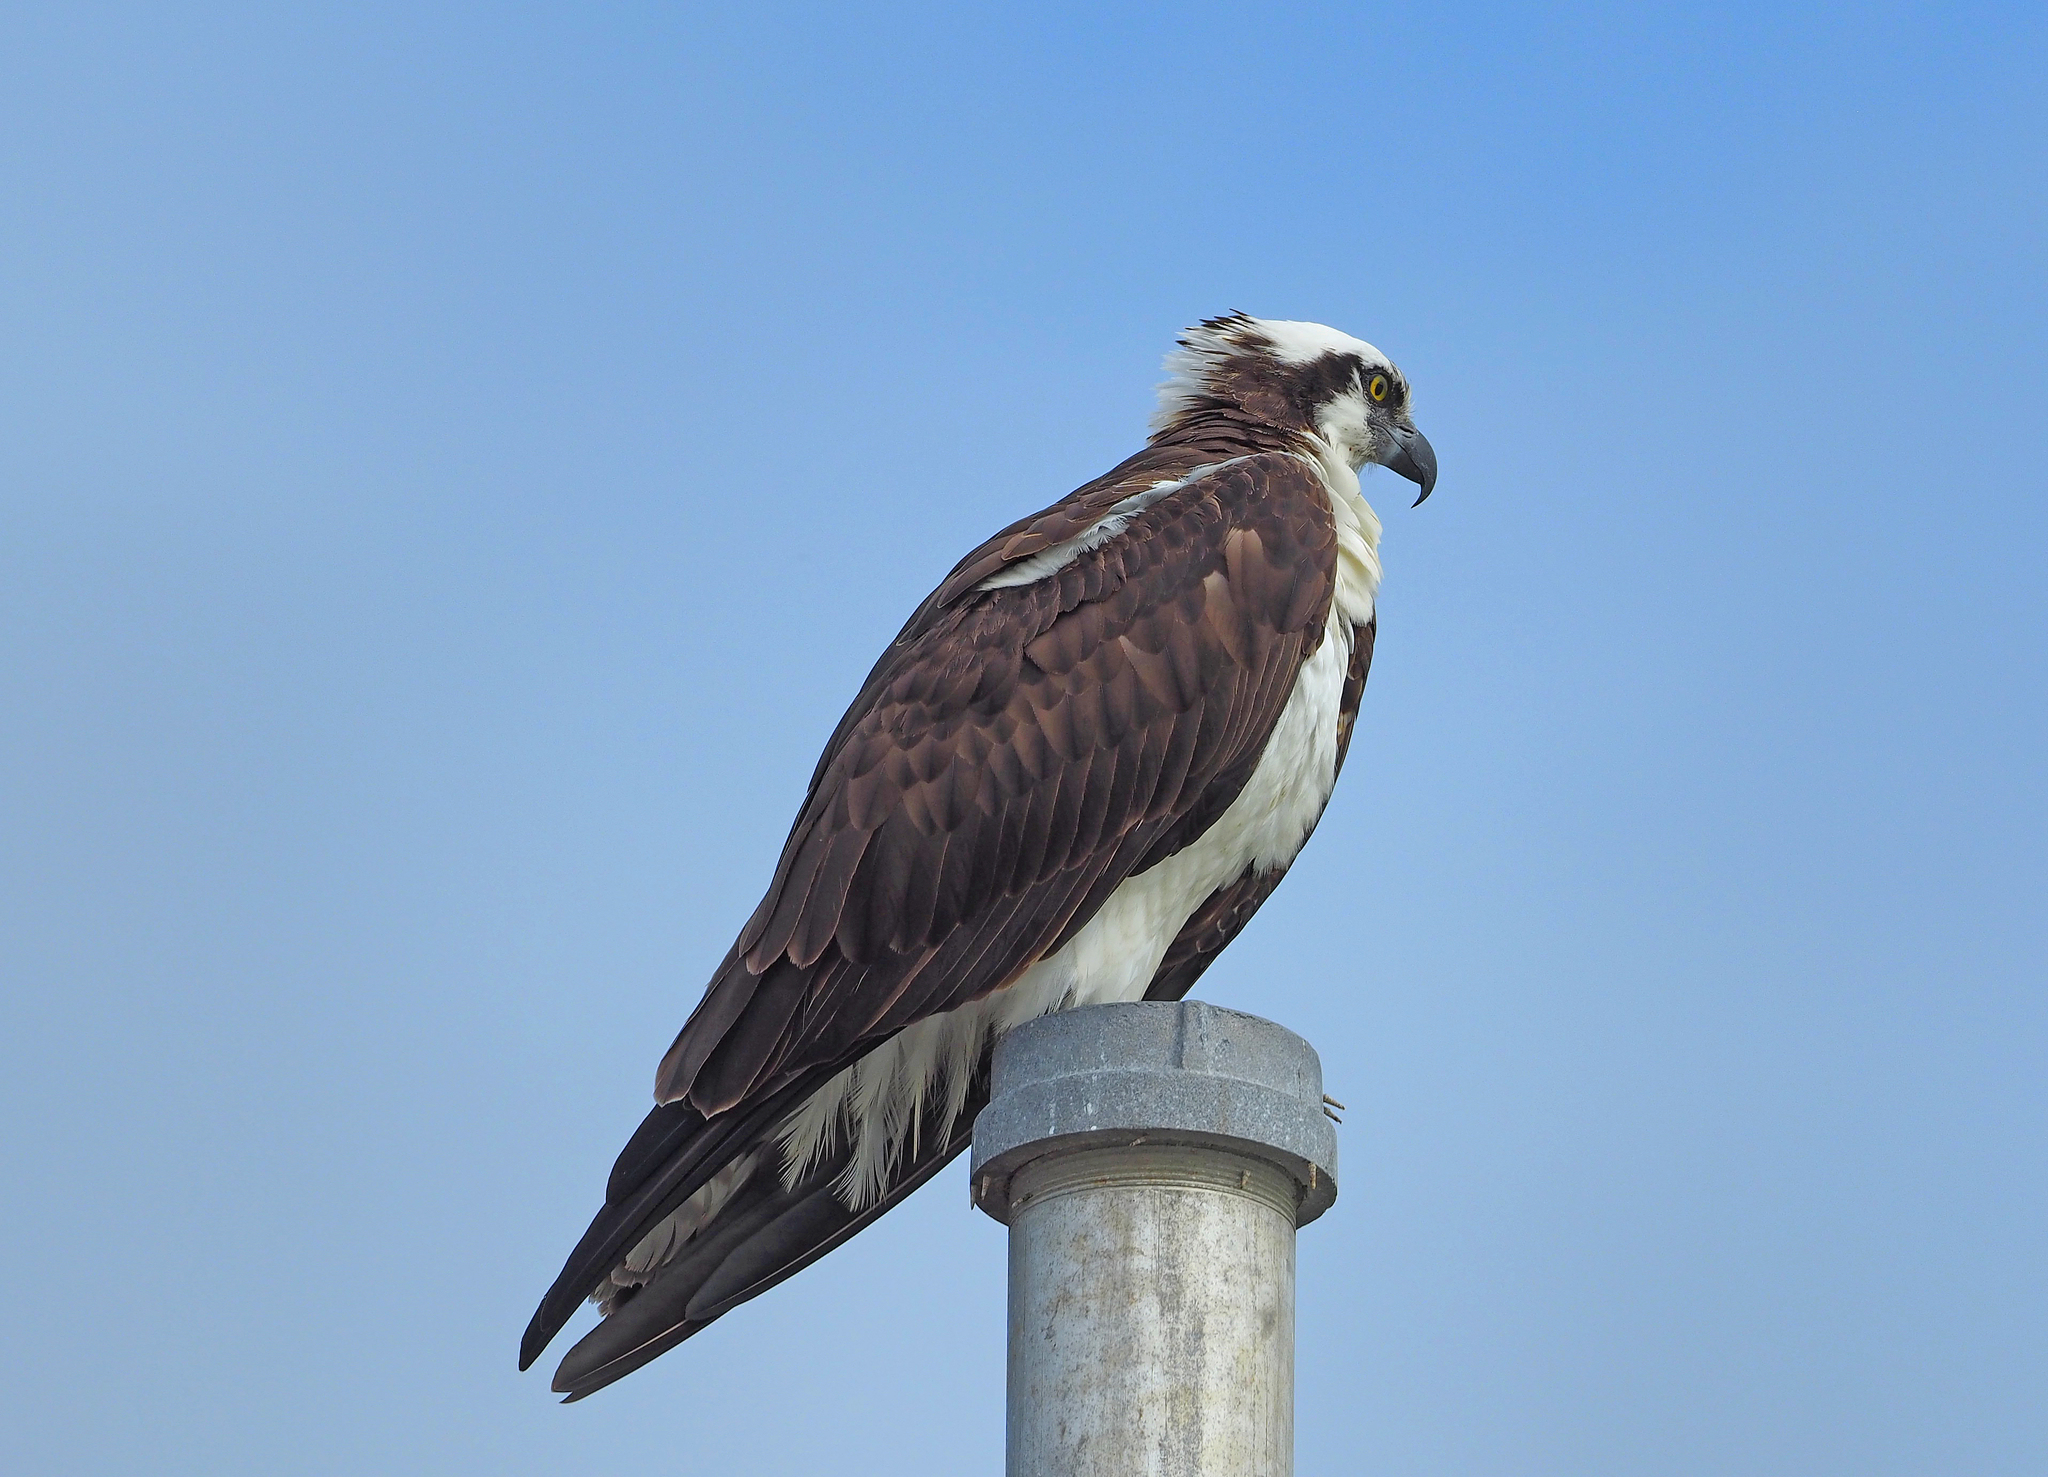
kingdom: Animalia
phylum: Chordata
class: Aves
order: Accipitriformes
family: Pandionidae
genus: Pandion
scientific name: Pandion haliaetus
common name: Osprey
